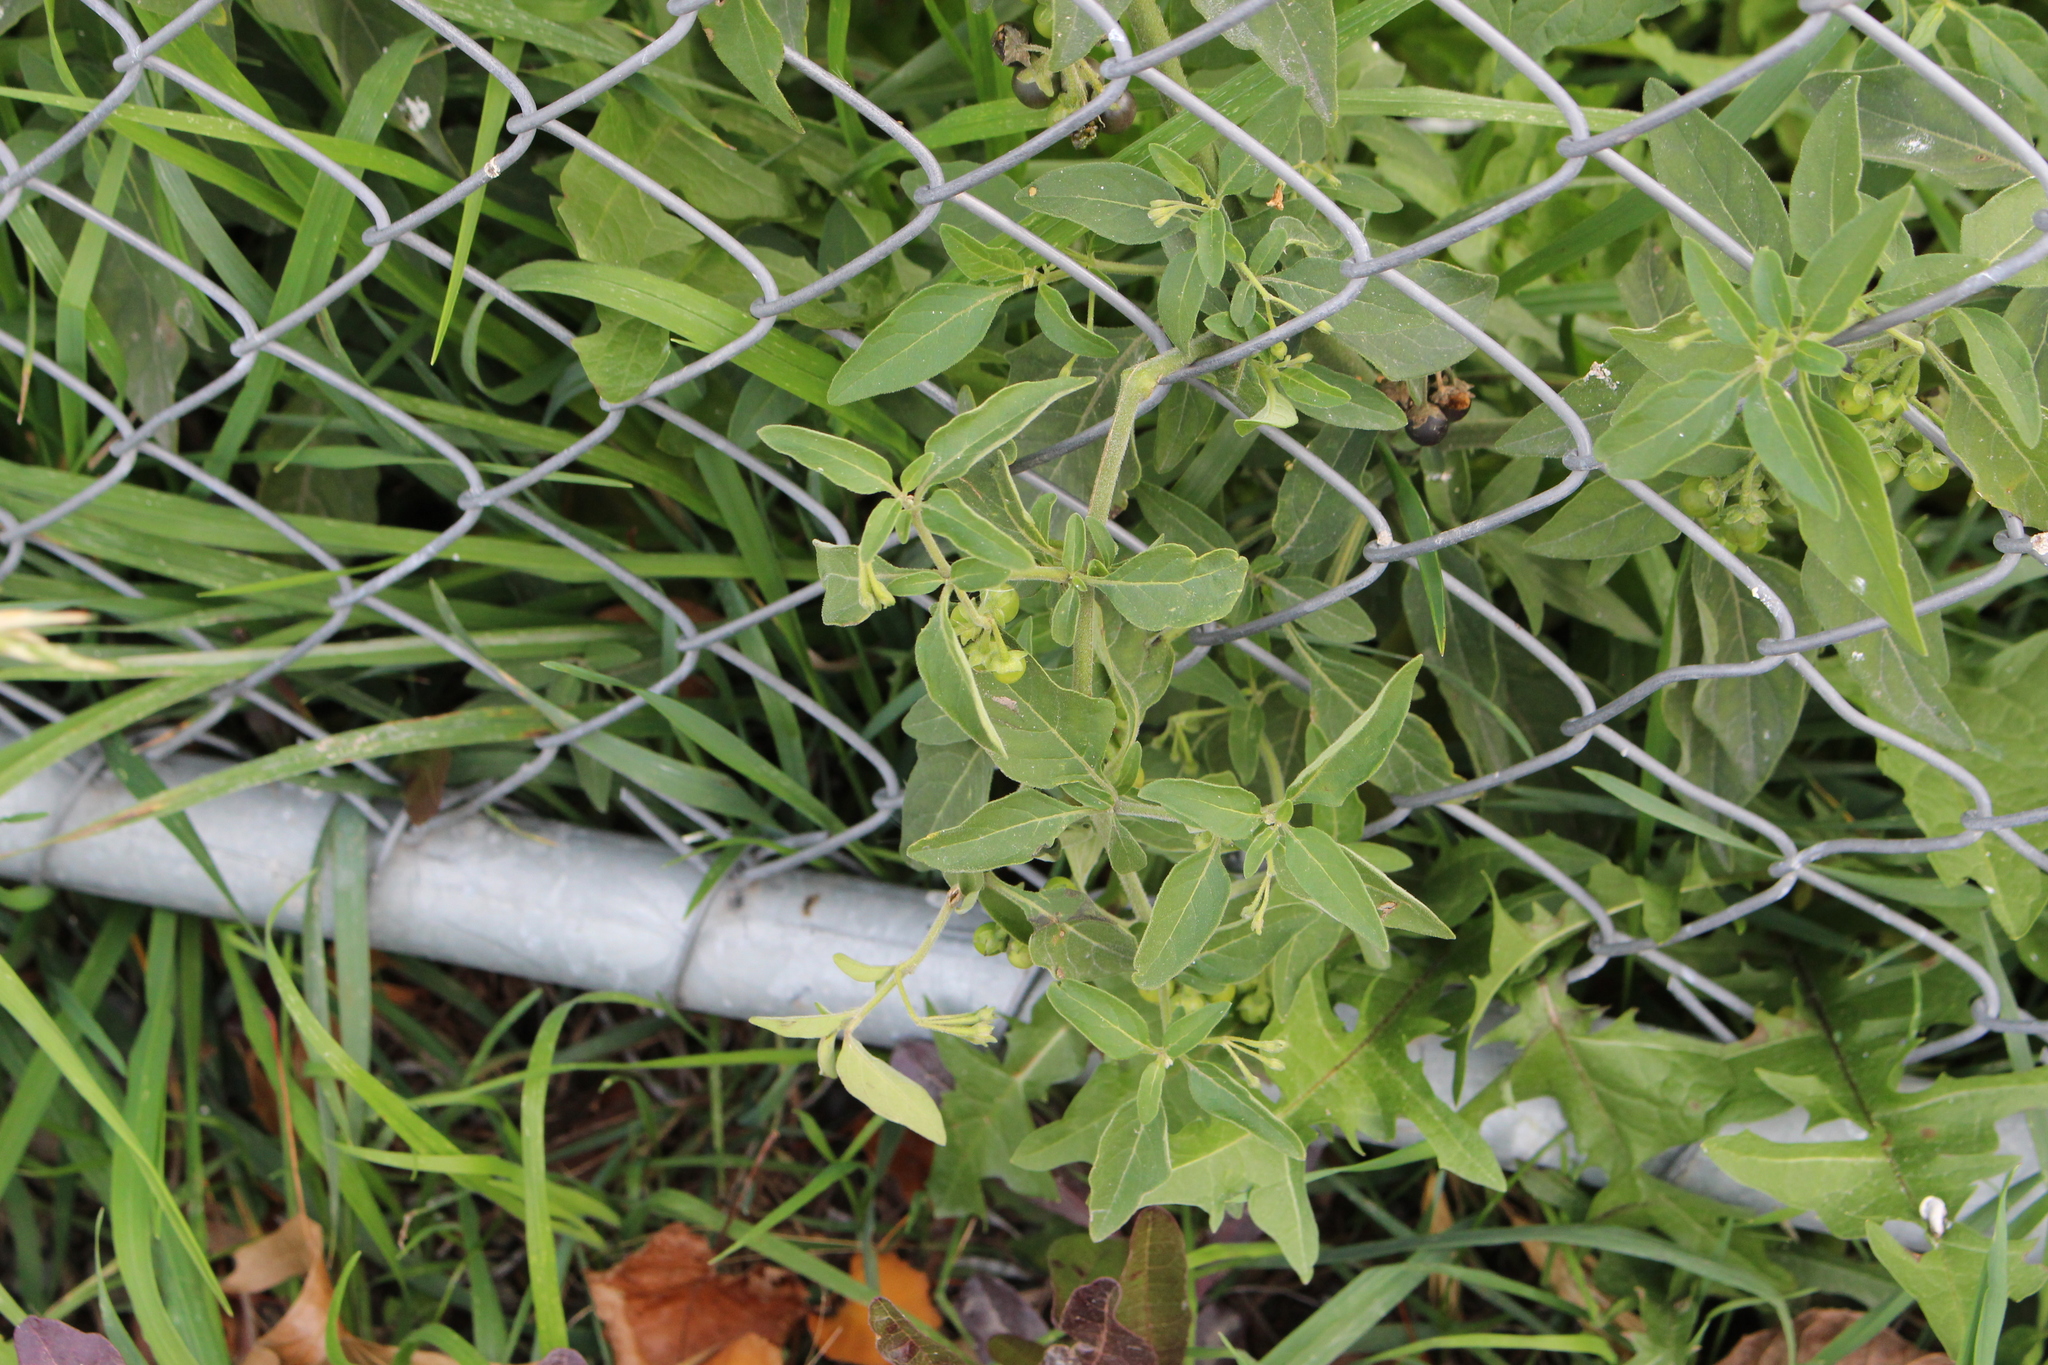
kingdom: Plantae
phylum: Tracheophyta
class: Magnoliopsida
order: Solanales
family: Solanaceae
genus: Solanum
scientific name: Solanum chenopodioides
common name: Tall nightshade
